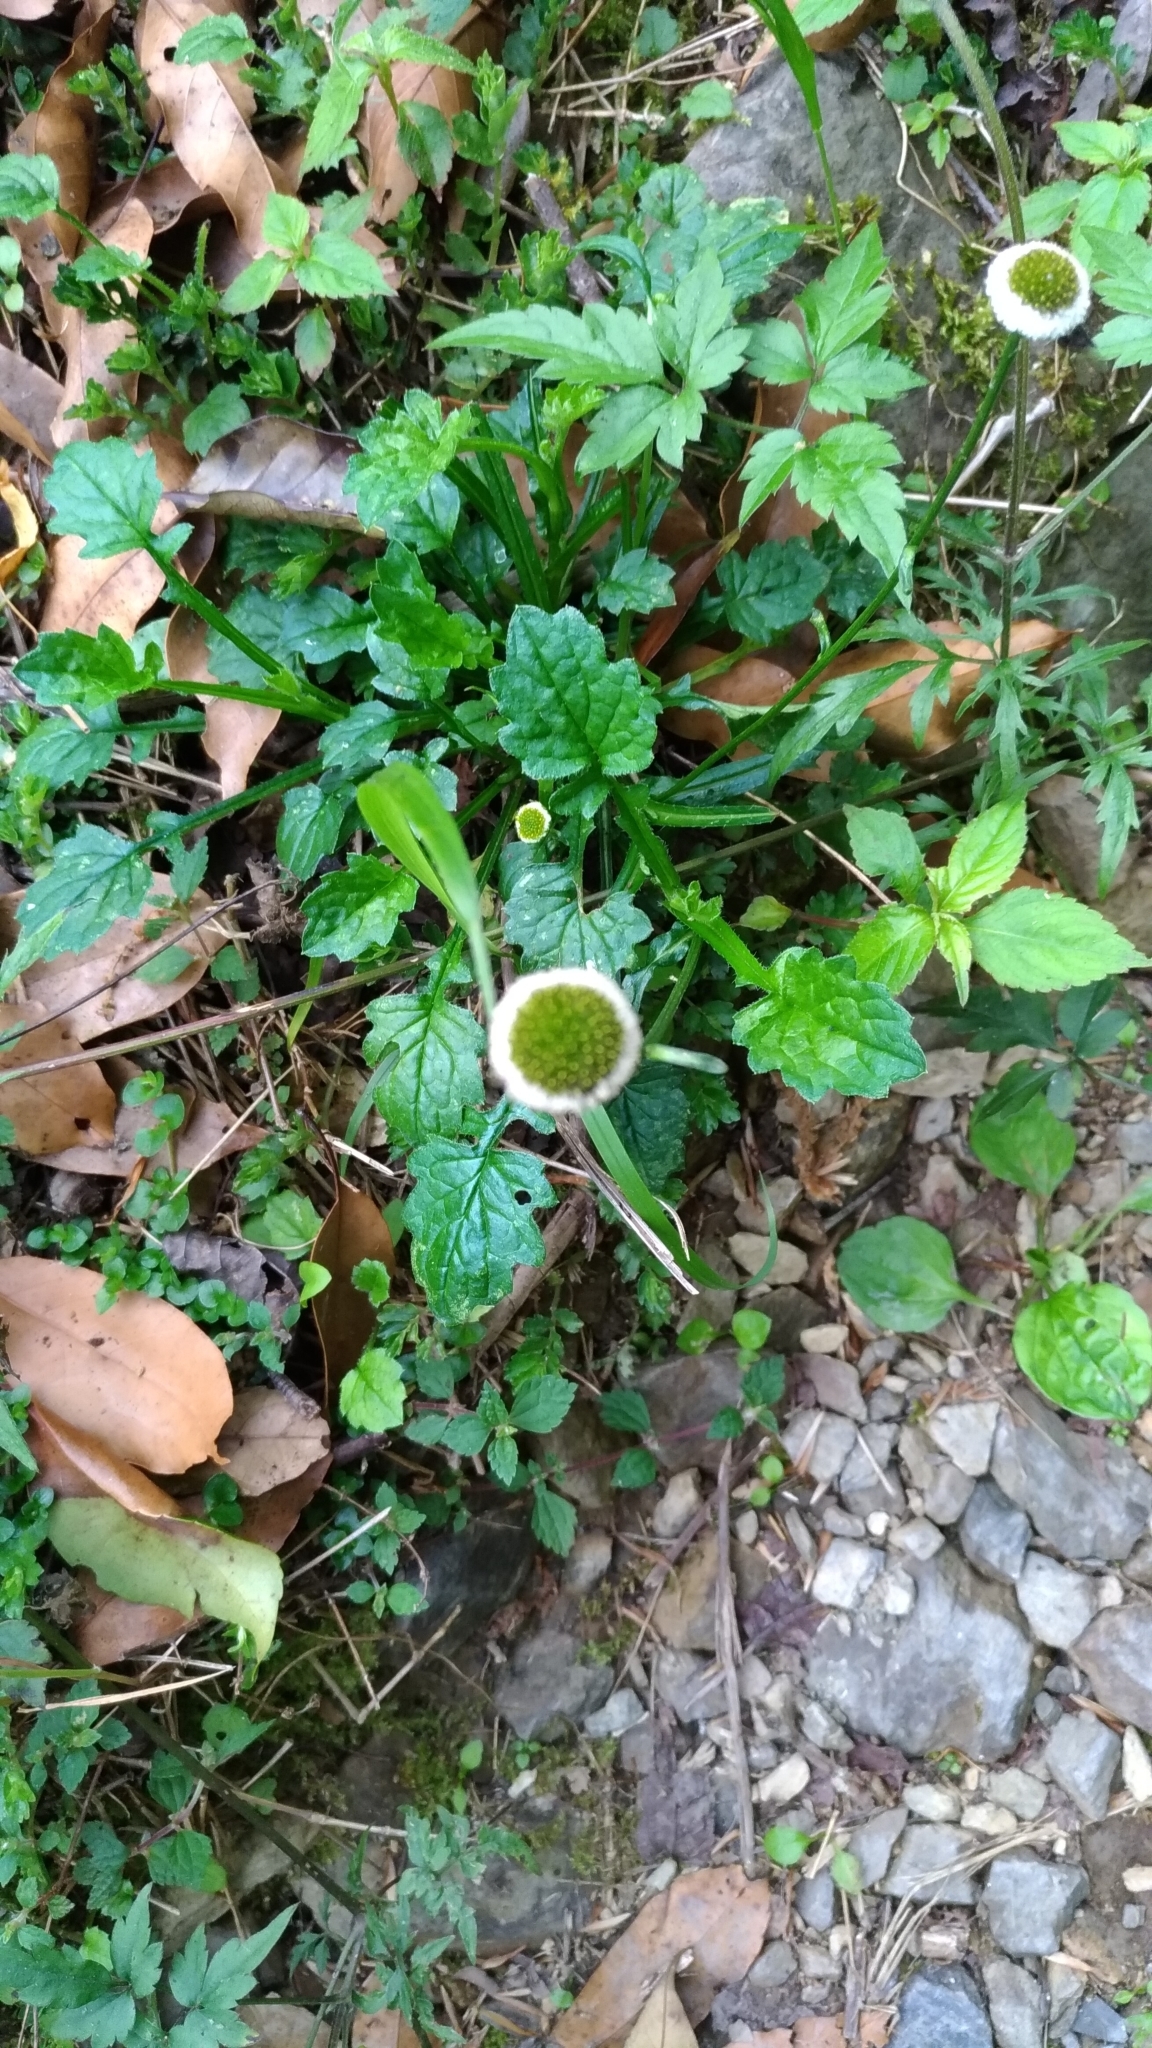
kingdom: Plantae
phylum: Tracheophyta
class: Magnoliopsida
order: Asterales
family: Asteraceae
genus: Myriactis
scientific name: Myriactis humilis
